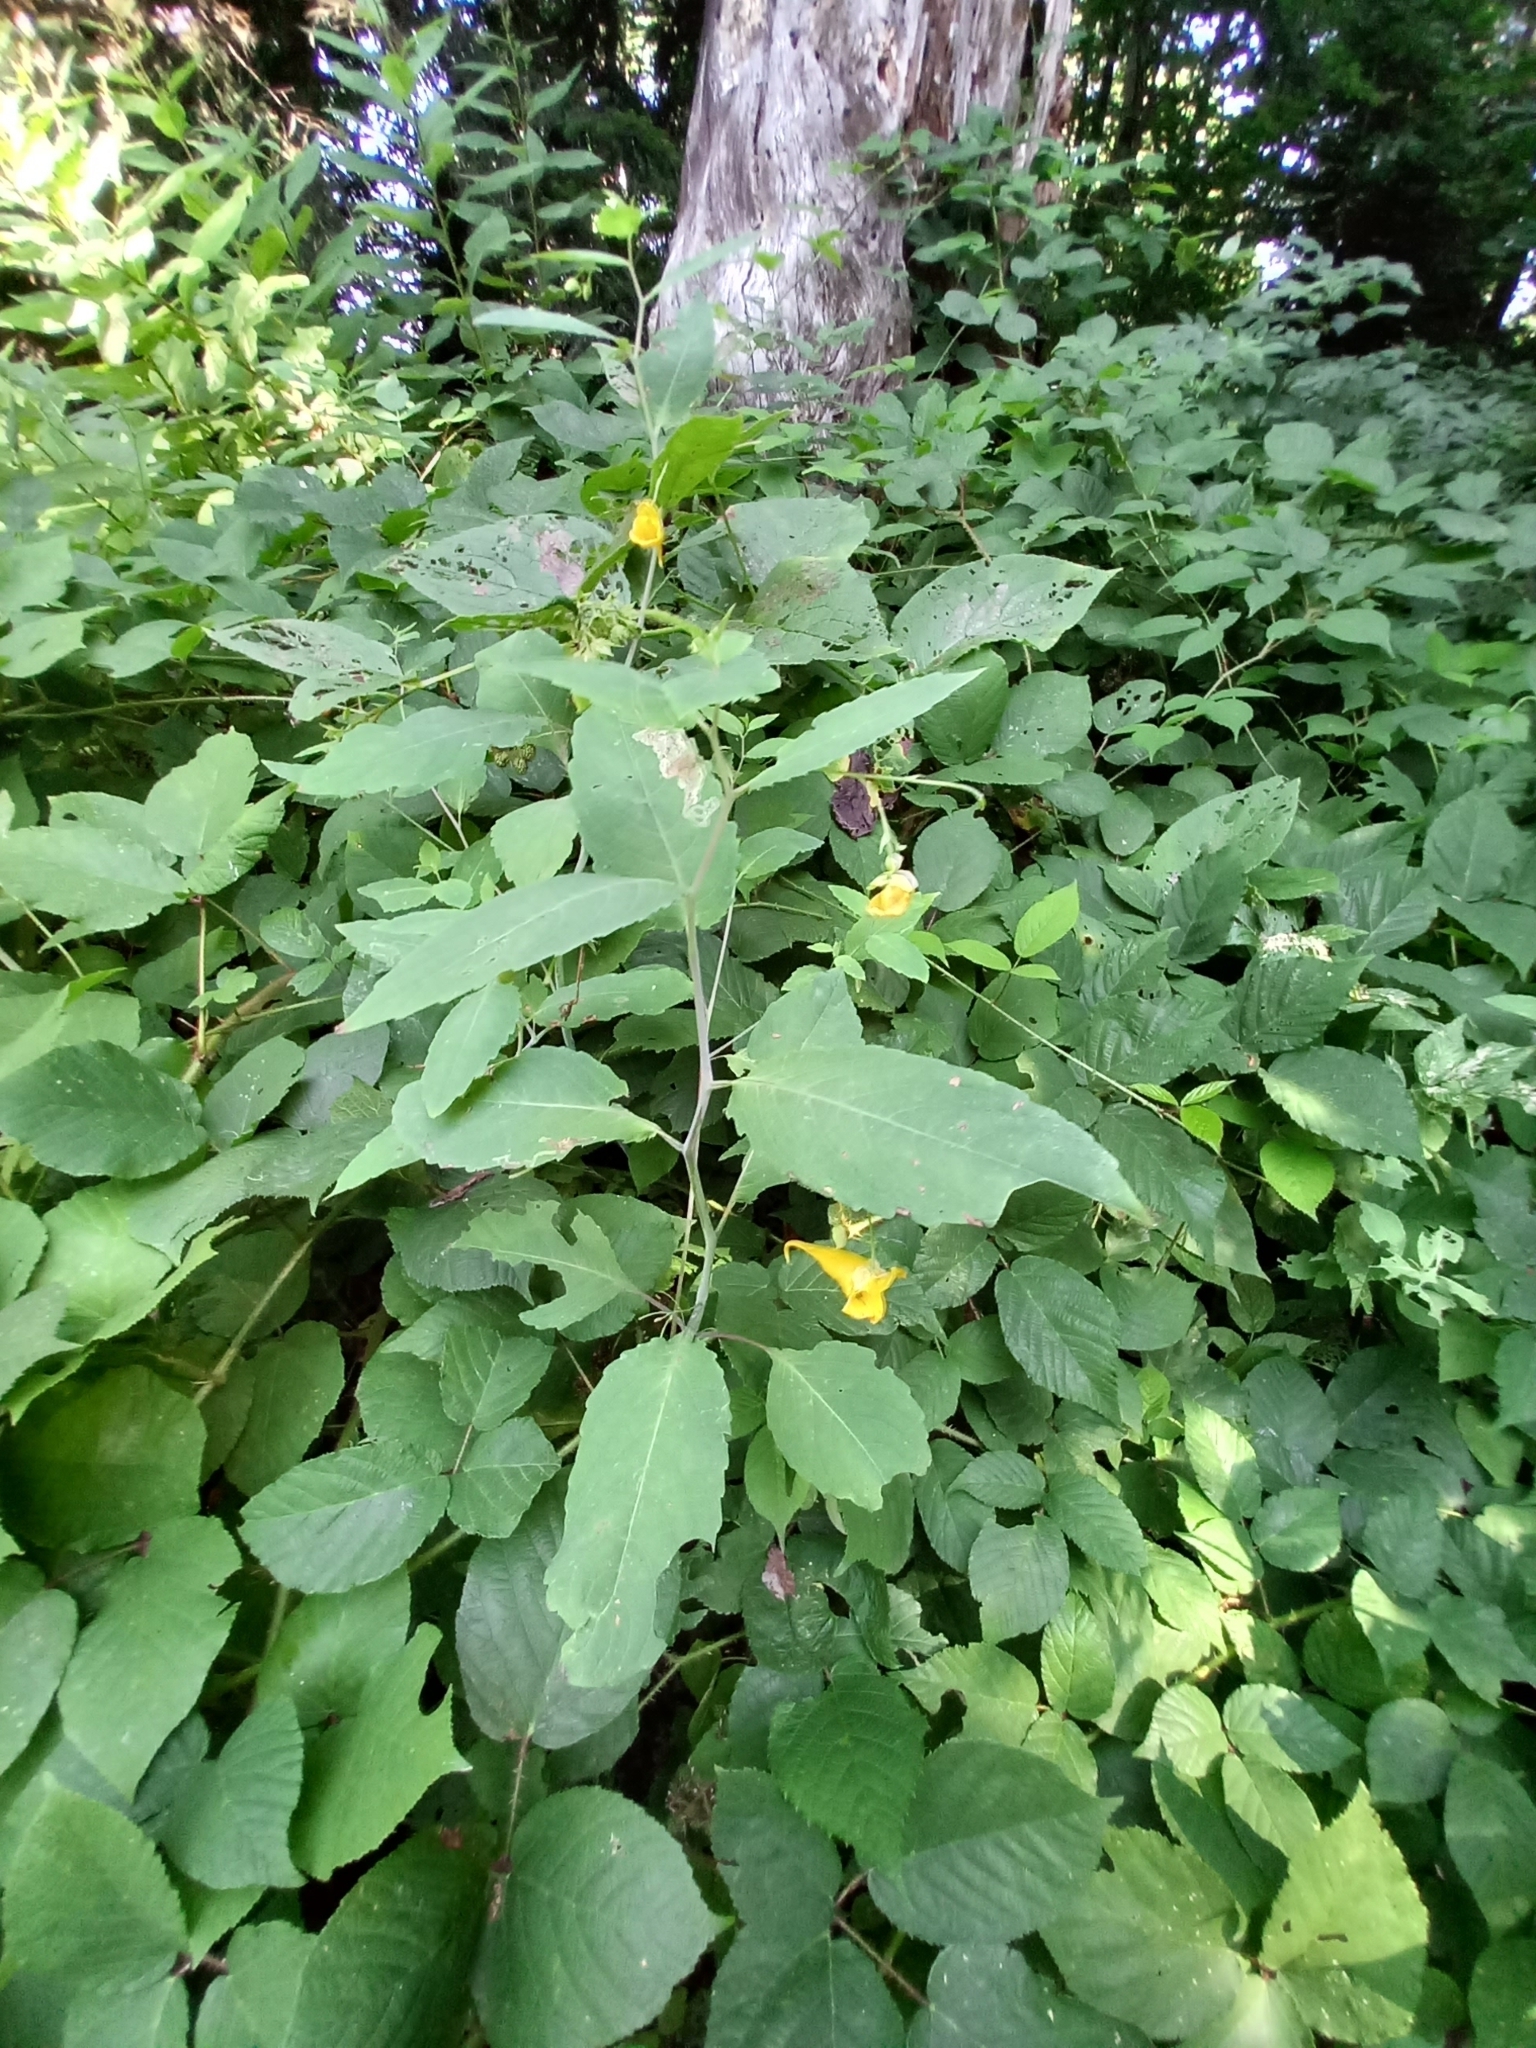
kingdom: Plantae
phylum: Tracheophyta
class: Magnoliopsida
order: Ericales
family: Balsaminaceae
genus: Impatiens
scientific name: Impatiens noli-tangere
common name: Touch-me-not balsam
